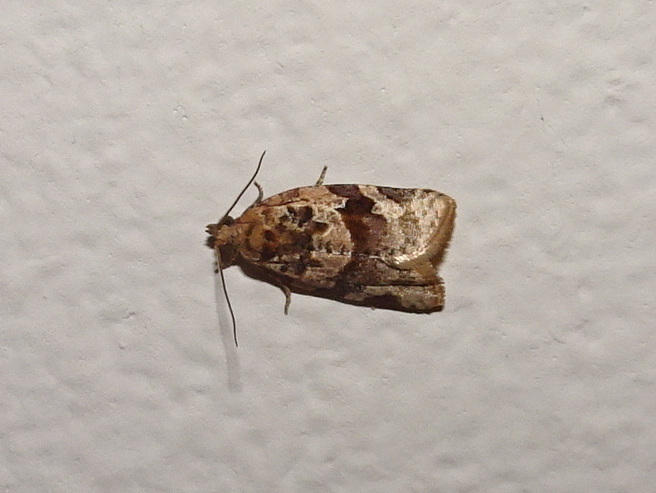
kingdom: Animalia
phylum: Arthropoda
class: Insecta
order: Lepidoptera
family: Tortricidae
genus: Argyrotaenia
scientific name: Argyrotaenia velutinana
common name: Red-banded leafroller moth
